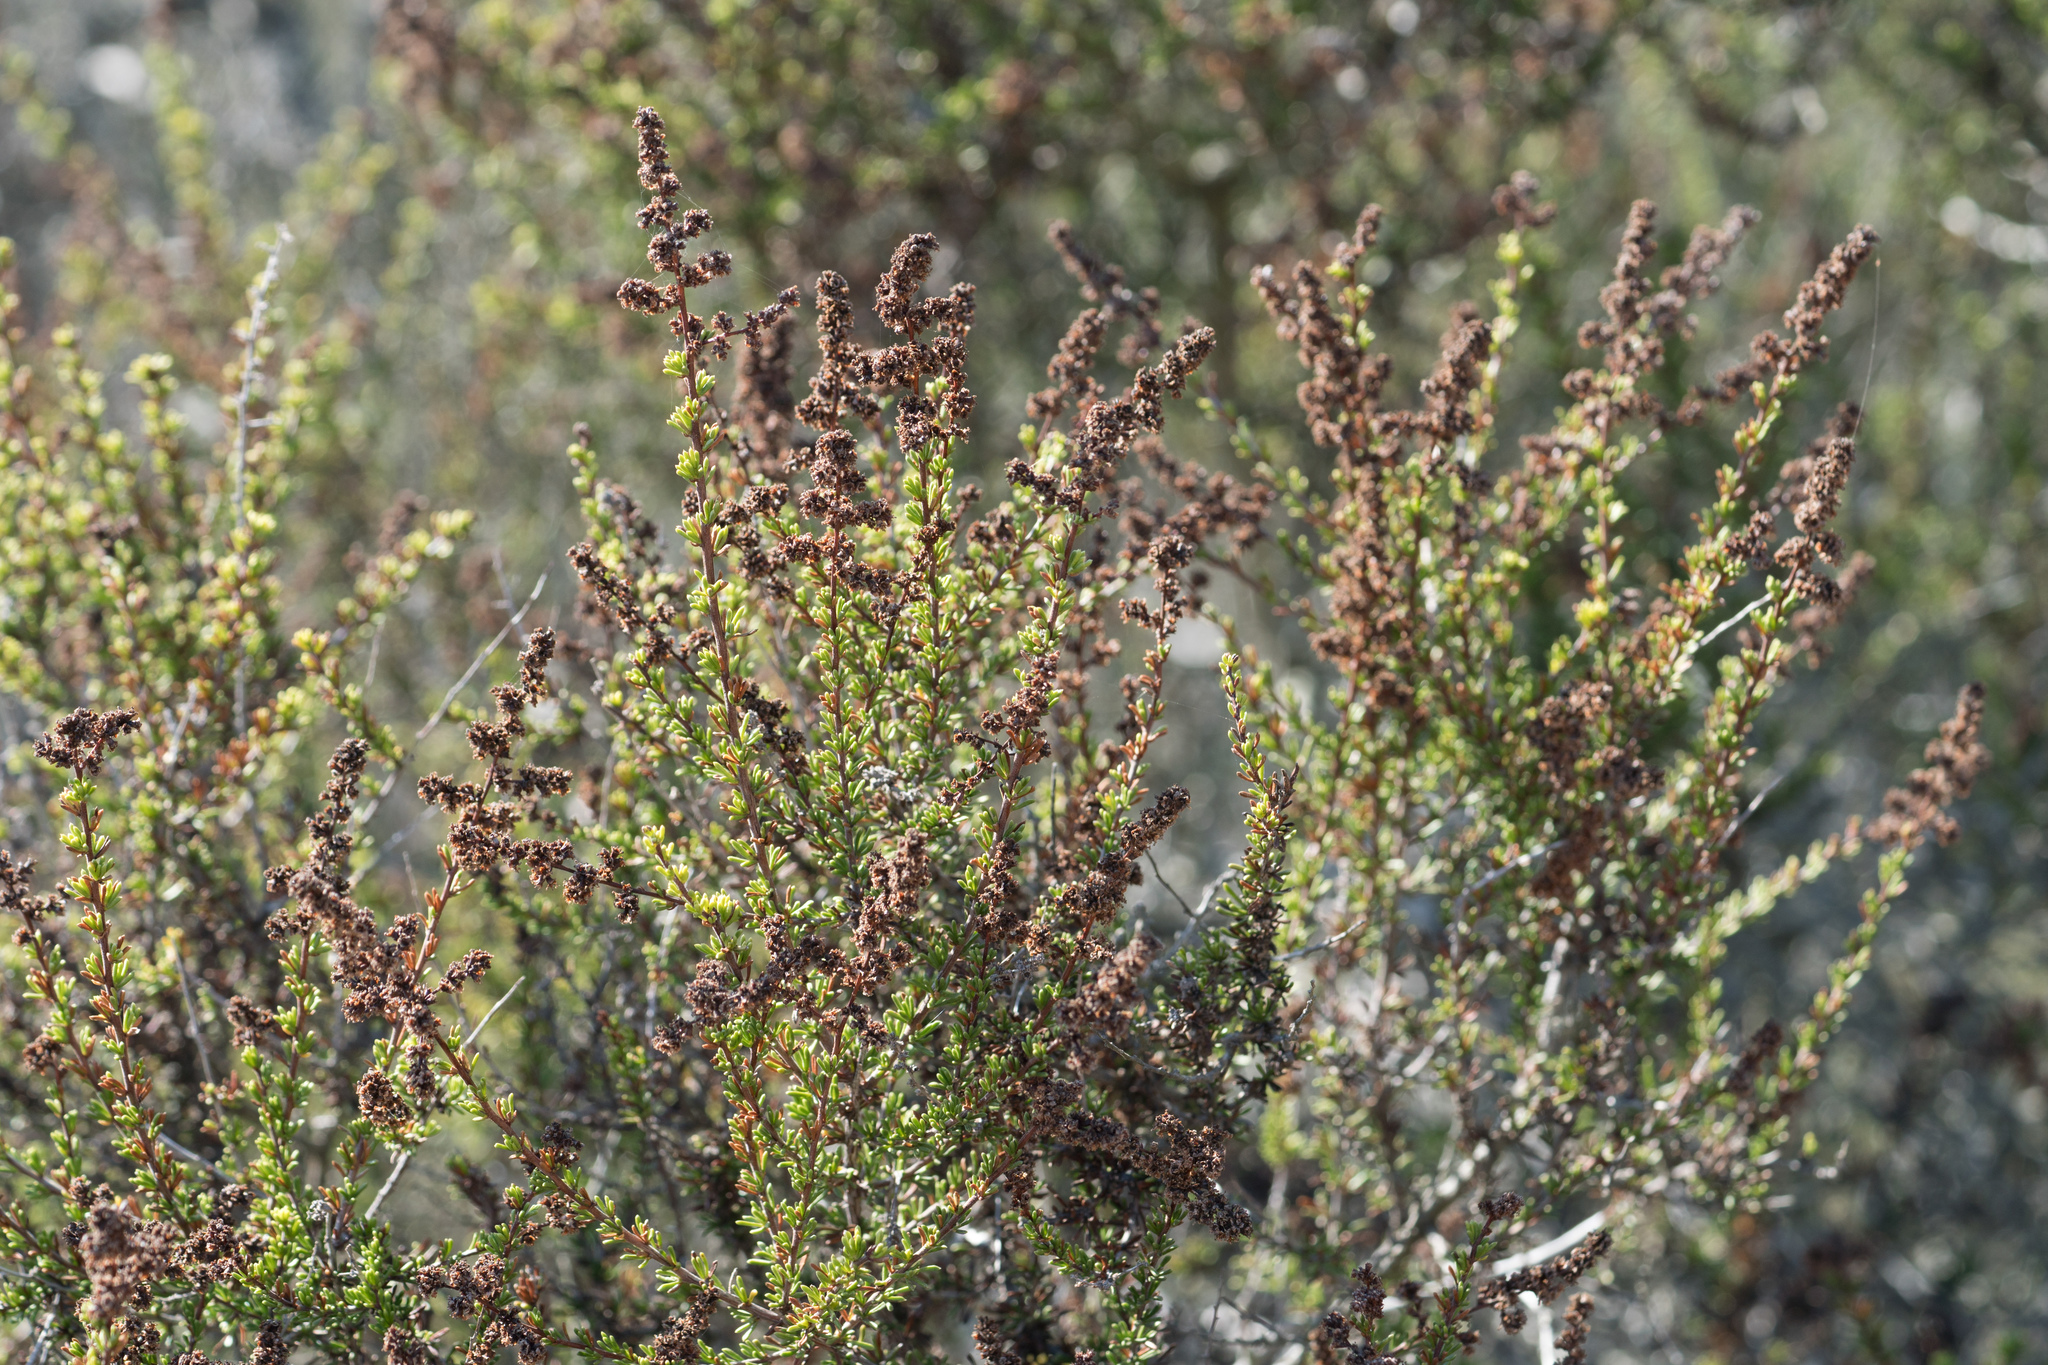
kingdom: Plantae
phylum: Tracheophyta
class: Magnoliopsida
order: Rosales
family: Rosaceae
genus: Adenostoma
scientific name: Adenostoma fasciculatum
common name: Chamise
